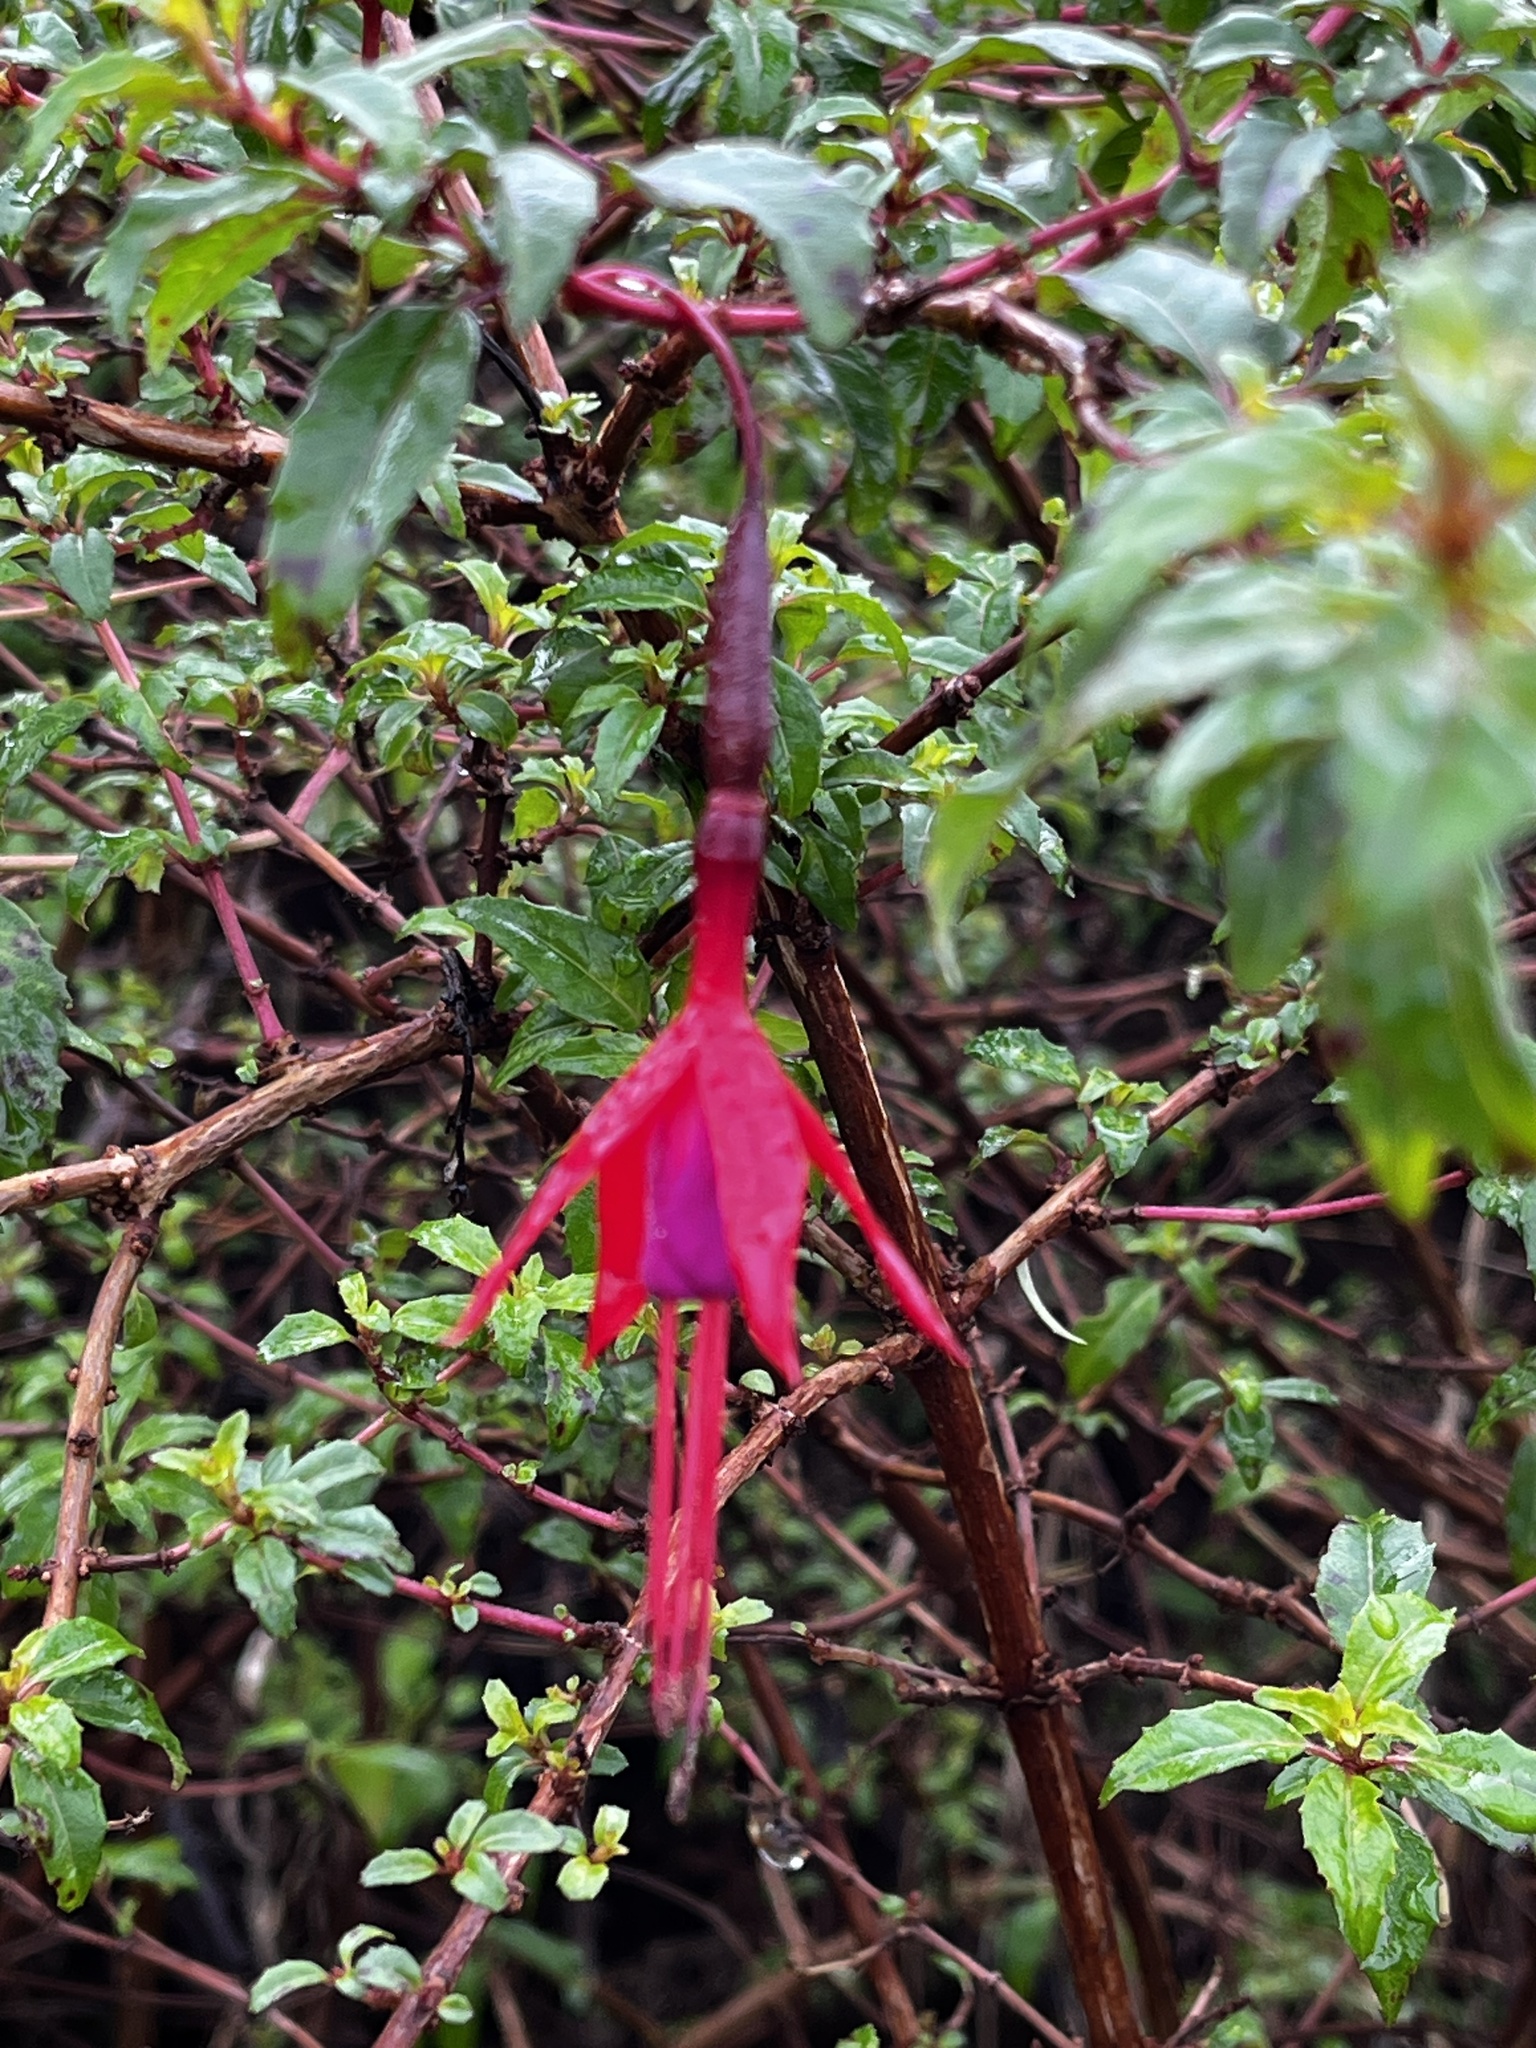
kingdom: Plantae
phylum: Tracheophyta
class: Magnoliopsida
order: Myrtales
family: Onagraceae
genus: Fuchsia
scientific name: Fuchsia magellanica
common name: Hardy fuchsia
